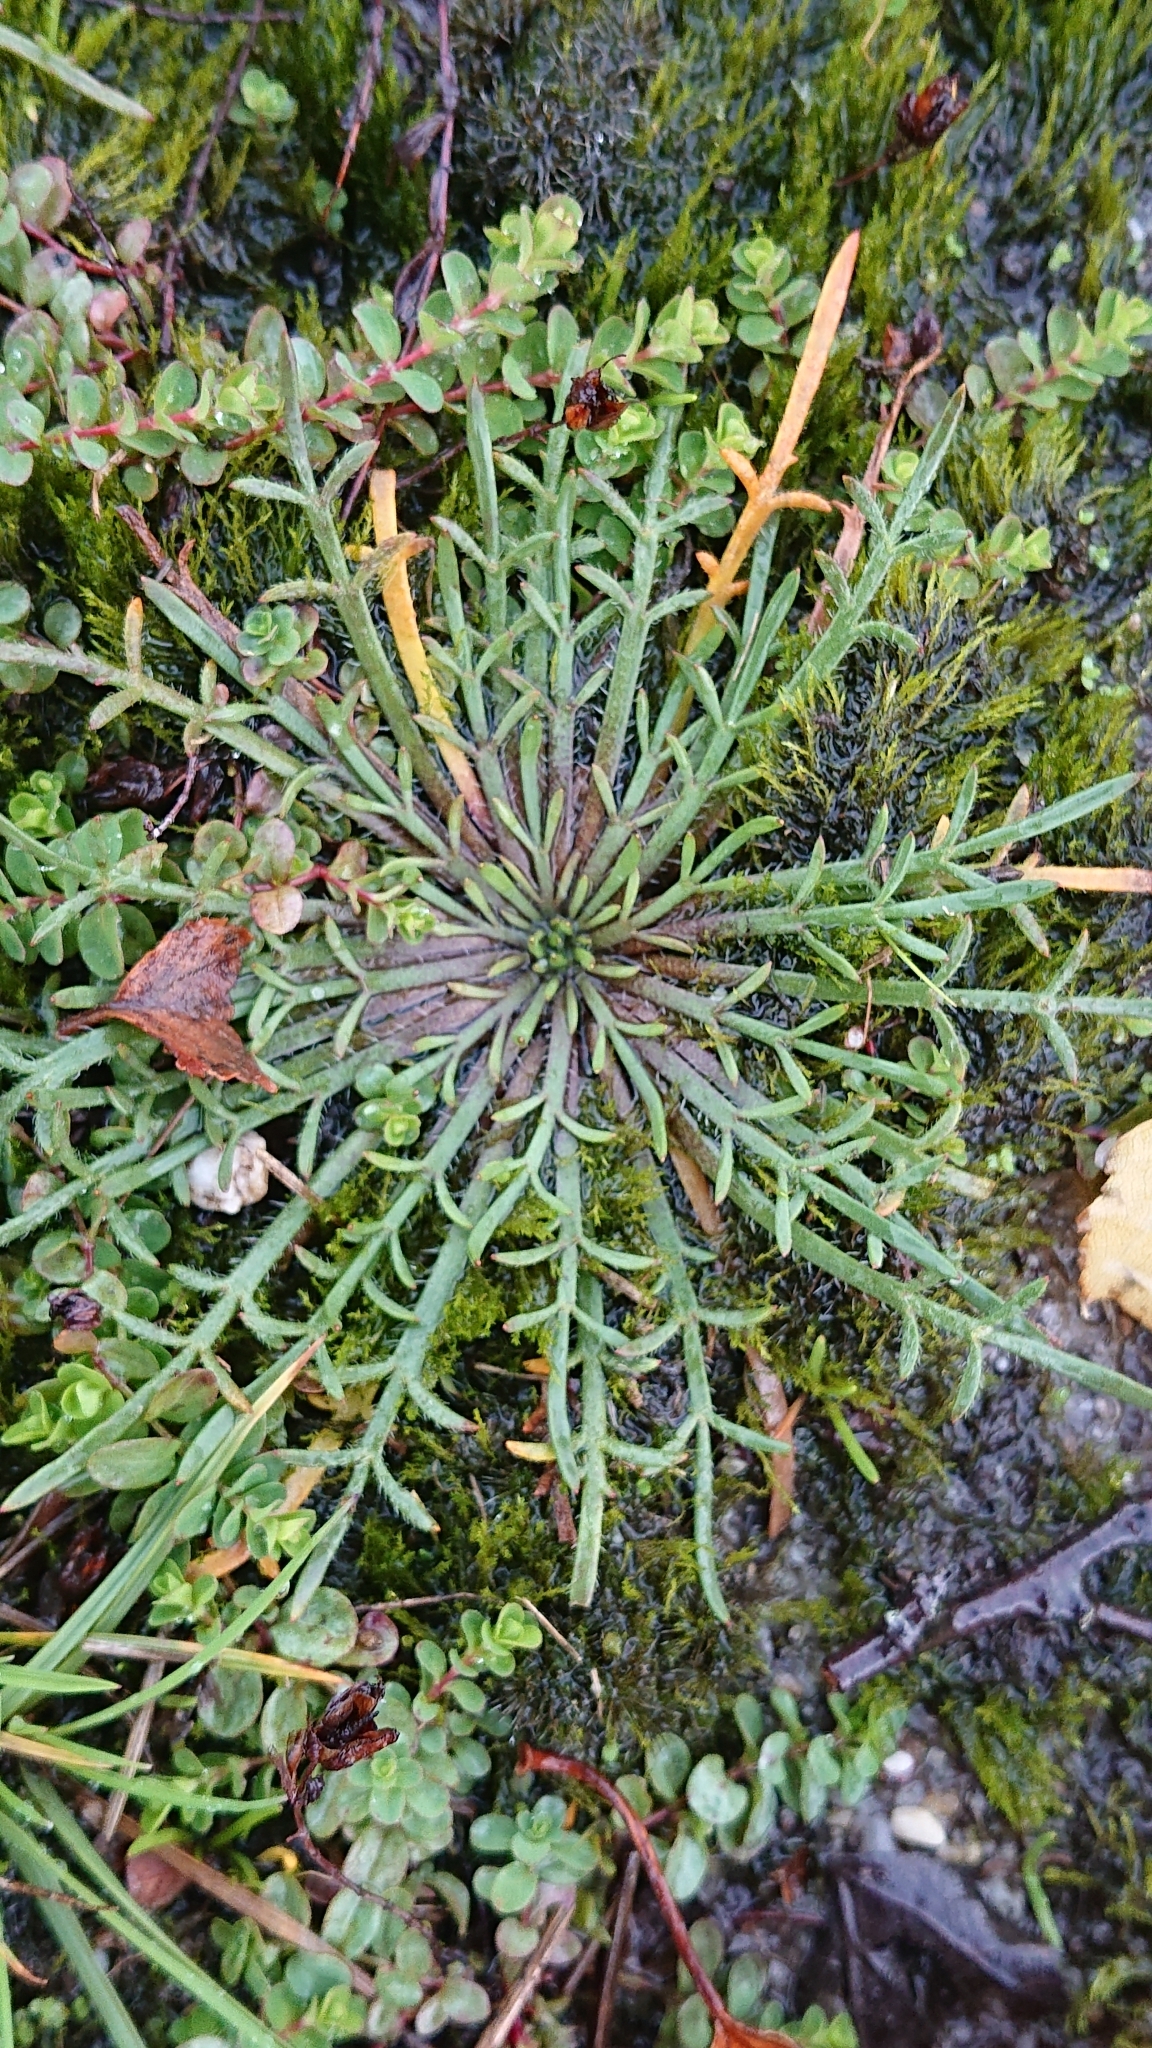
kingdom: Plantae
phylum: Tracheophyta
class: Magnoliopsida
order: Lamiales
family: Plantaginaceae
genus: Plantago
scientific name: Plantago coronopus
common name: Buck's-horn plantain
